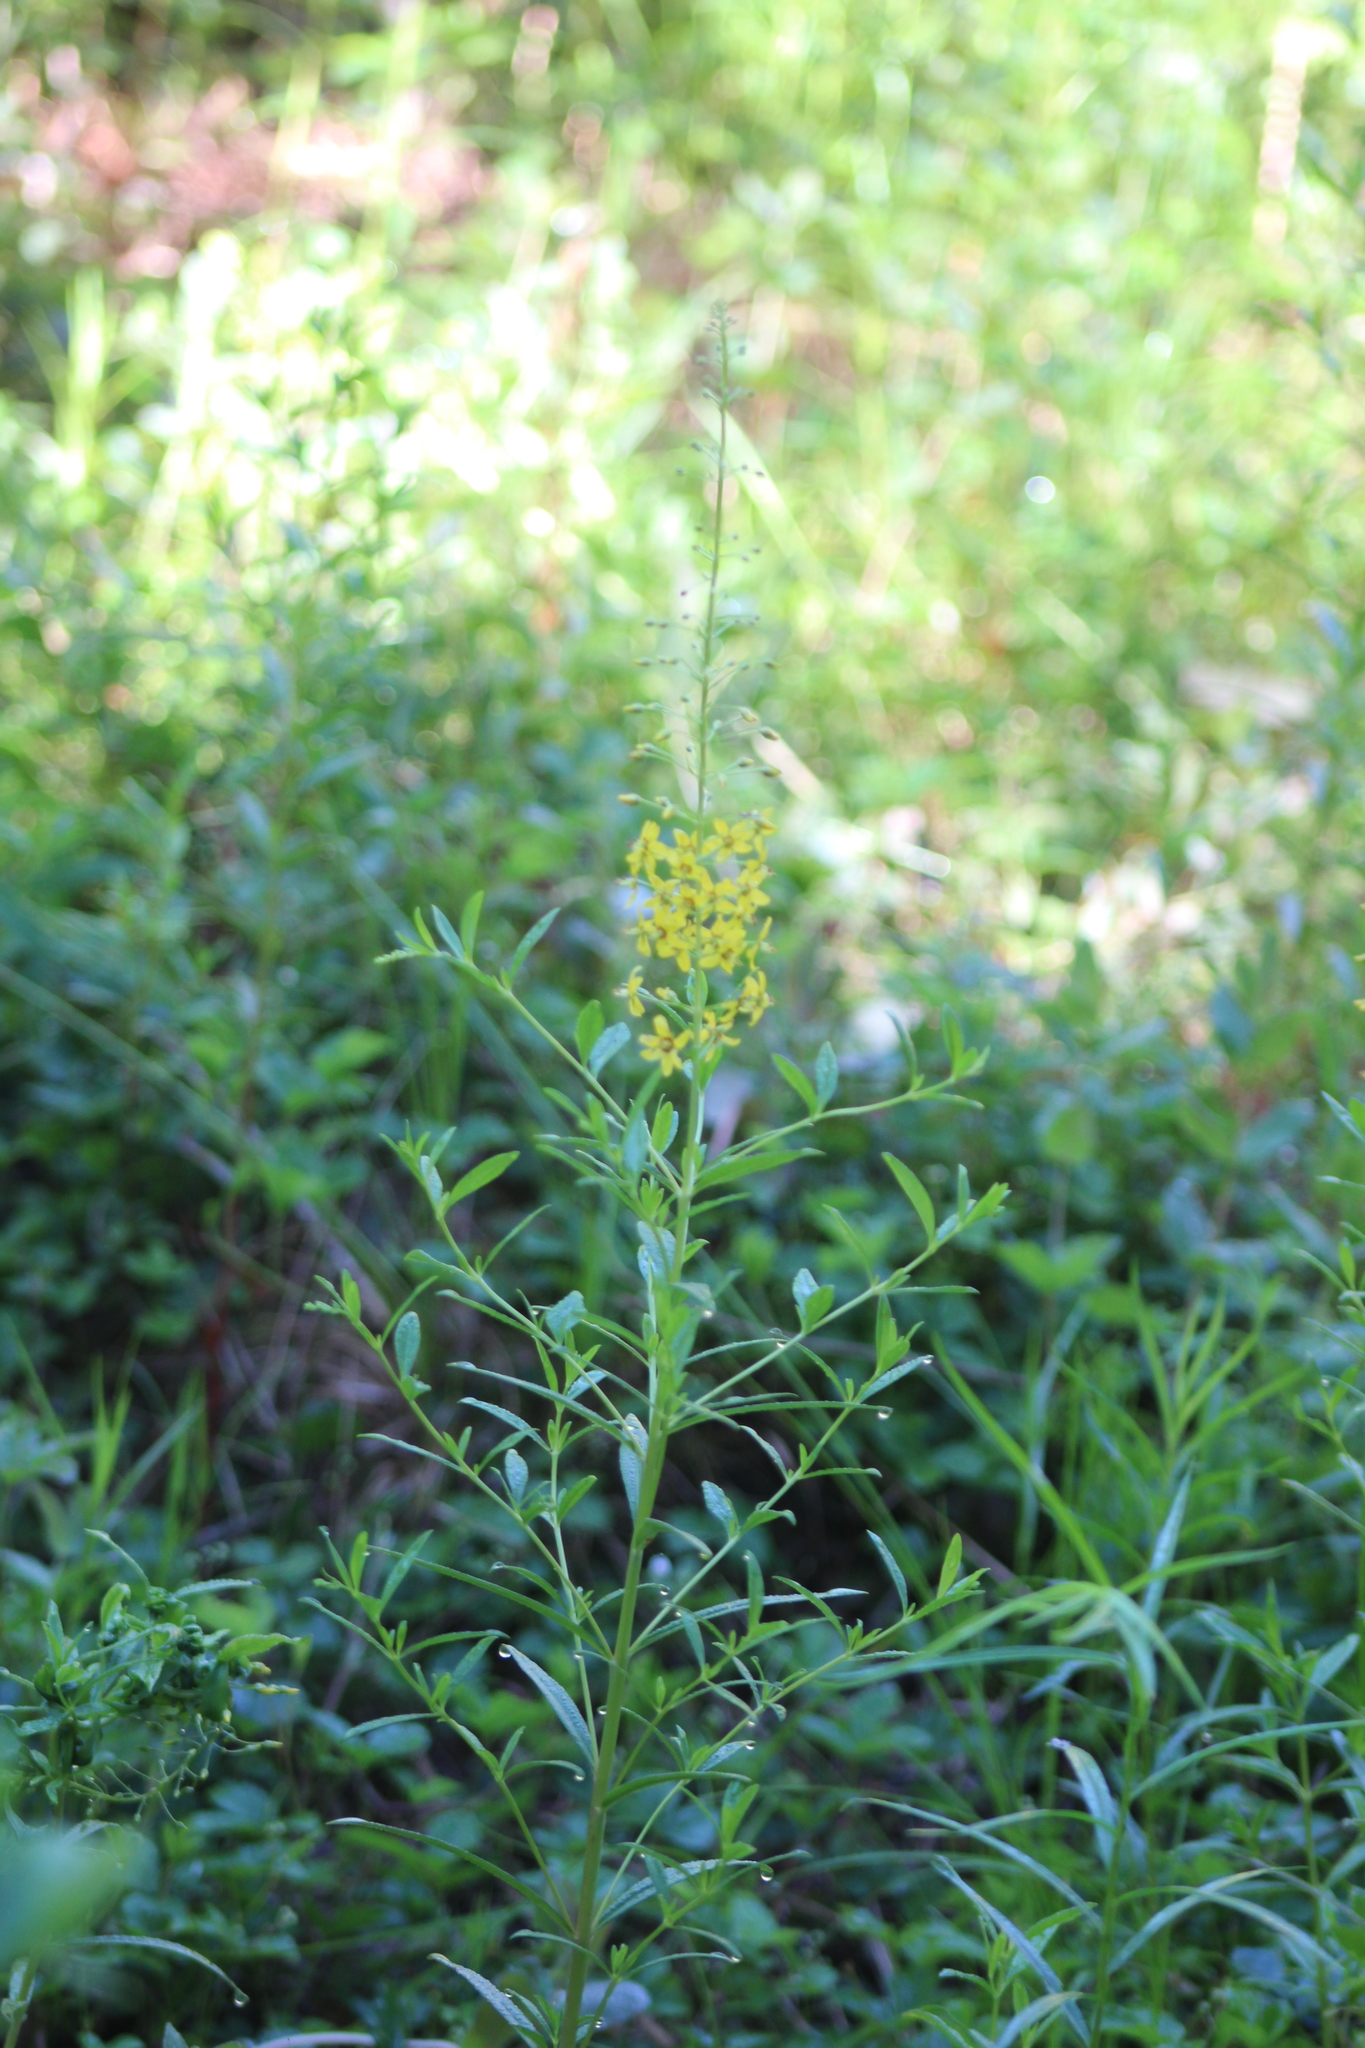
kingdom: Plantae
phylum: Tracheophyta
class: Magnoliopsida
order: Ericales
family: Primulaceae
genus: Lysimachia
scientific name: Lysimachia terrestris
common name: Lake loosestrife
